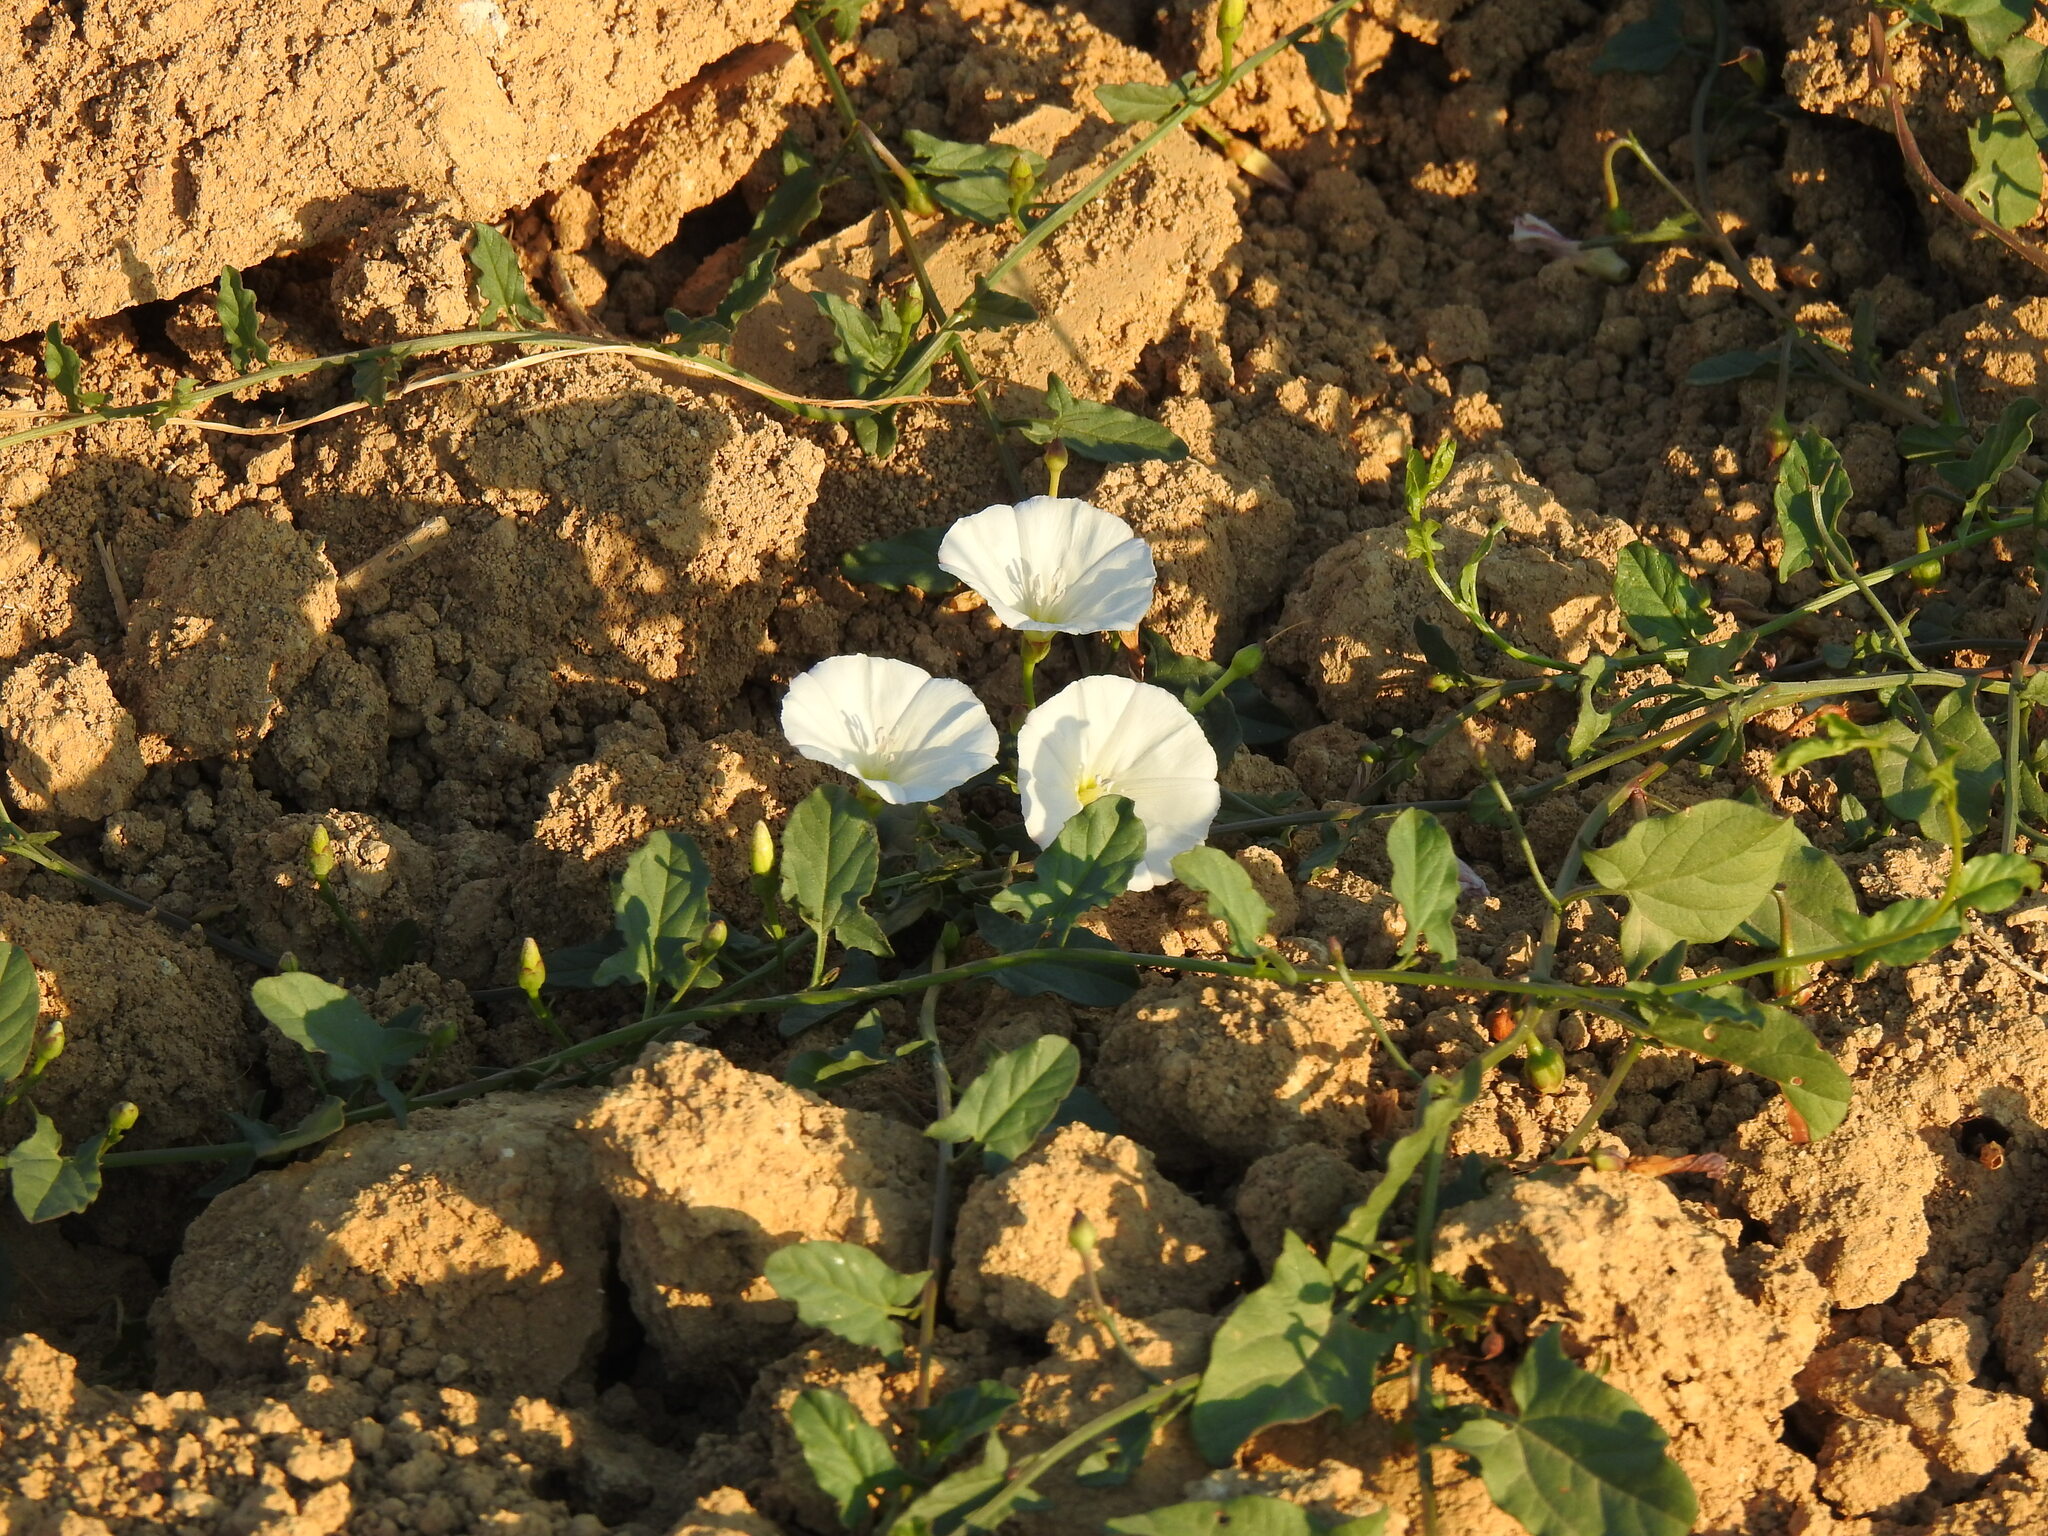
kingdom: Plantae
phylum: Tracheophyta
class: Magnoliopsida
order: Solanales
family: Convolvulaceae
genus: Convolvulus
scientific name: Convolvulus arvensis
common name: Field bindweed
